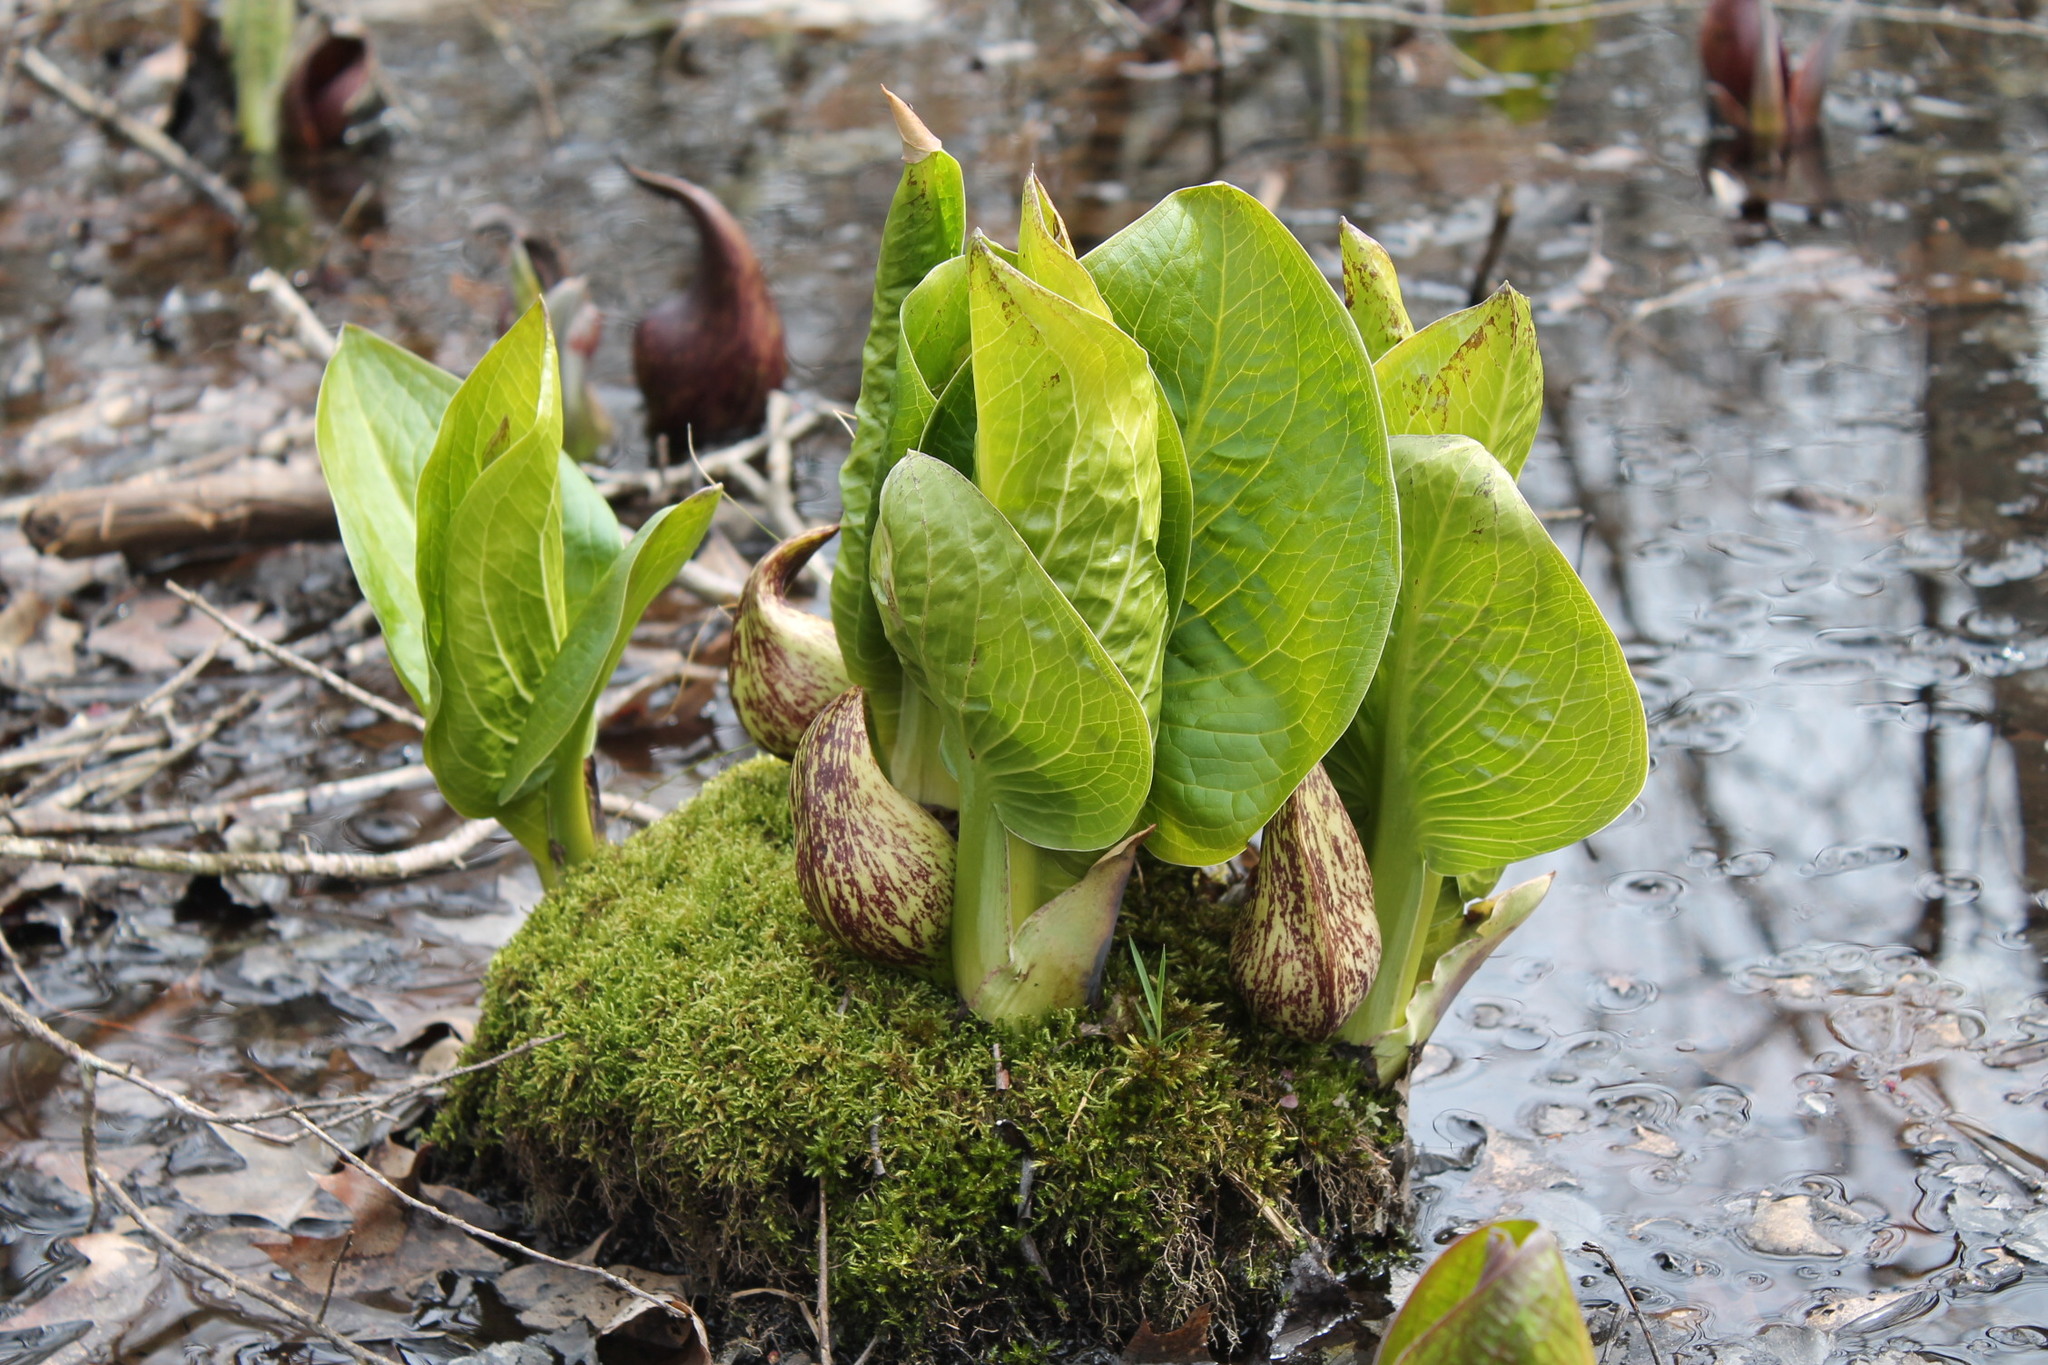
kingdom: Plantae
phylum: Tracheophyta
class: Liliopsida
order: Alismatales
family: Araceae
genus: Symplocarpus
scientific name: Symplocarpus foetidus
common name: Eastern skunk cabbage
